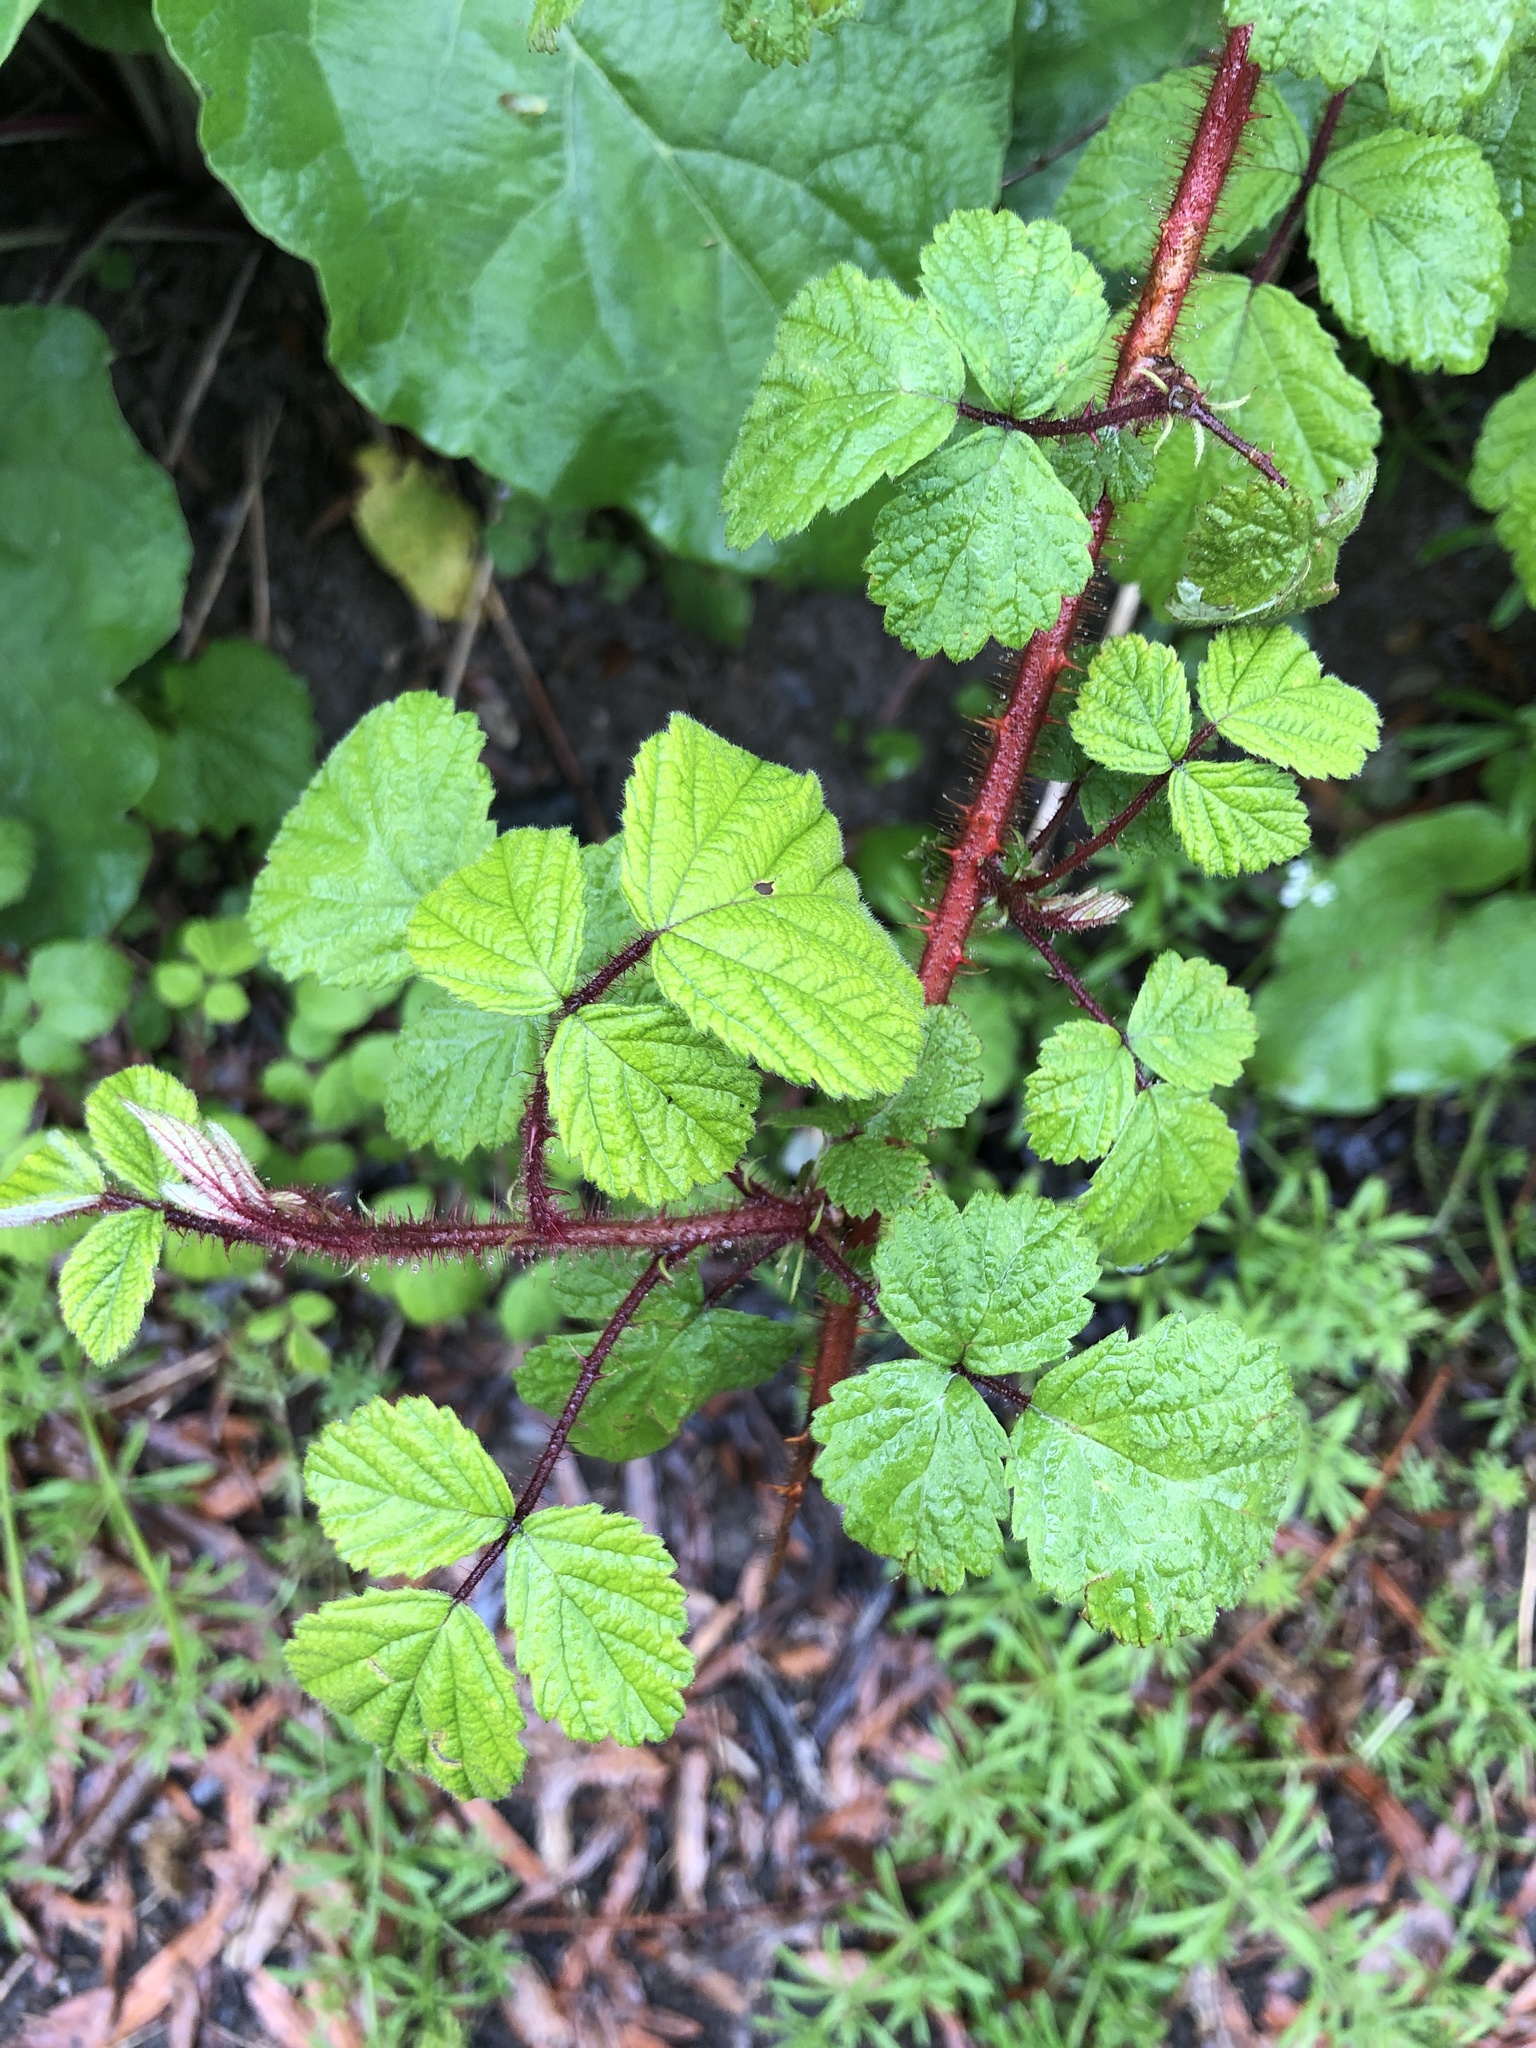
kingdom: Plantae
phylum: Tracheophyta
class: Magnoliopsida
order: Rosales
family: Rosaceae
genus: Rubus
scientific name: Rubus phoenicolasius
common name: Japanese wineberry
